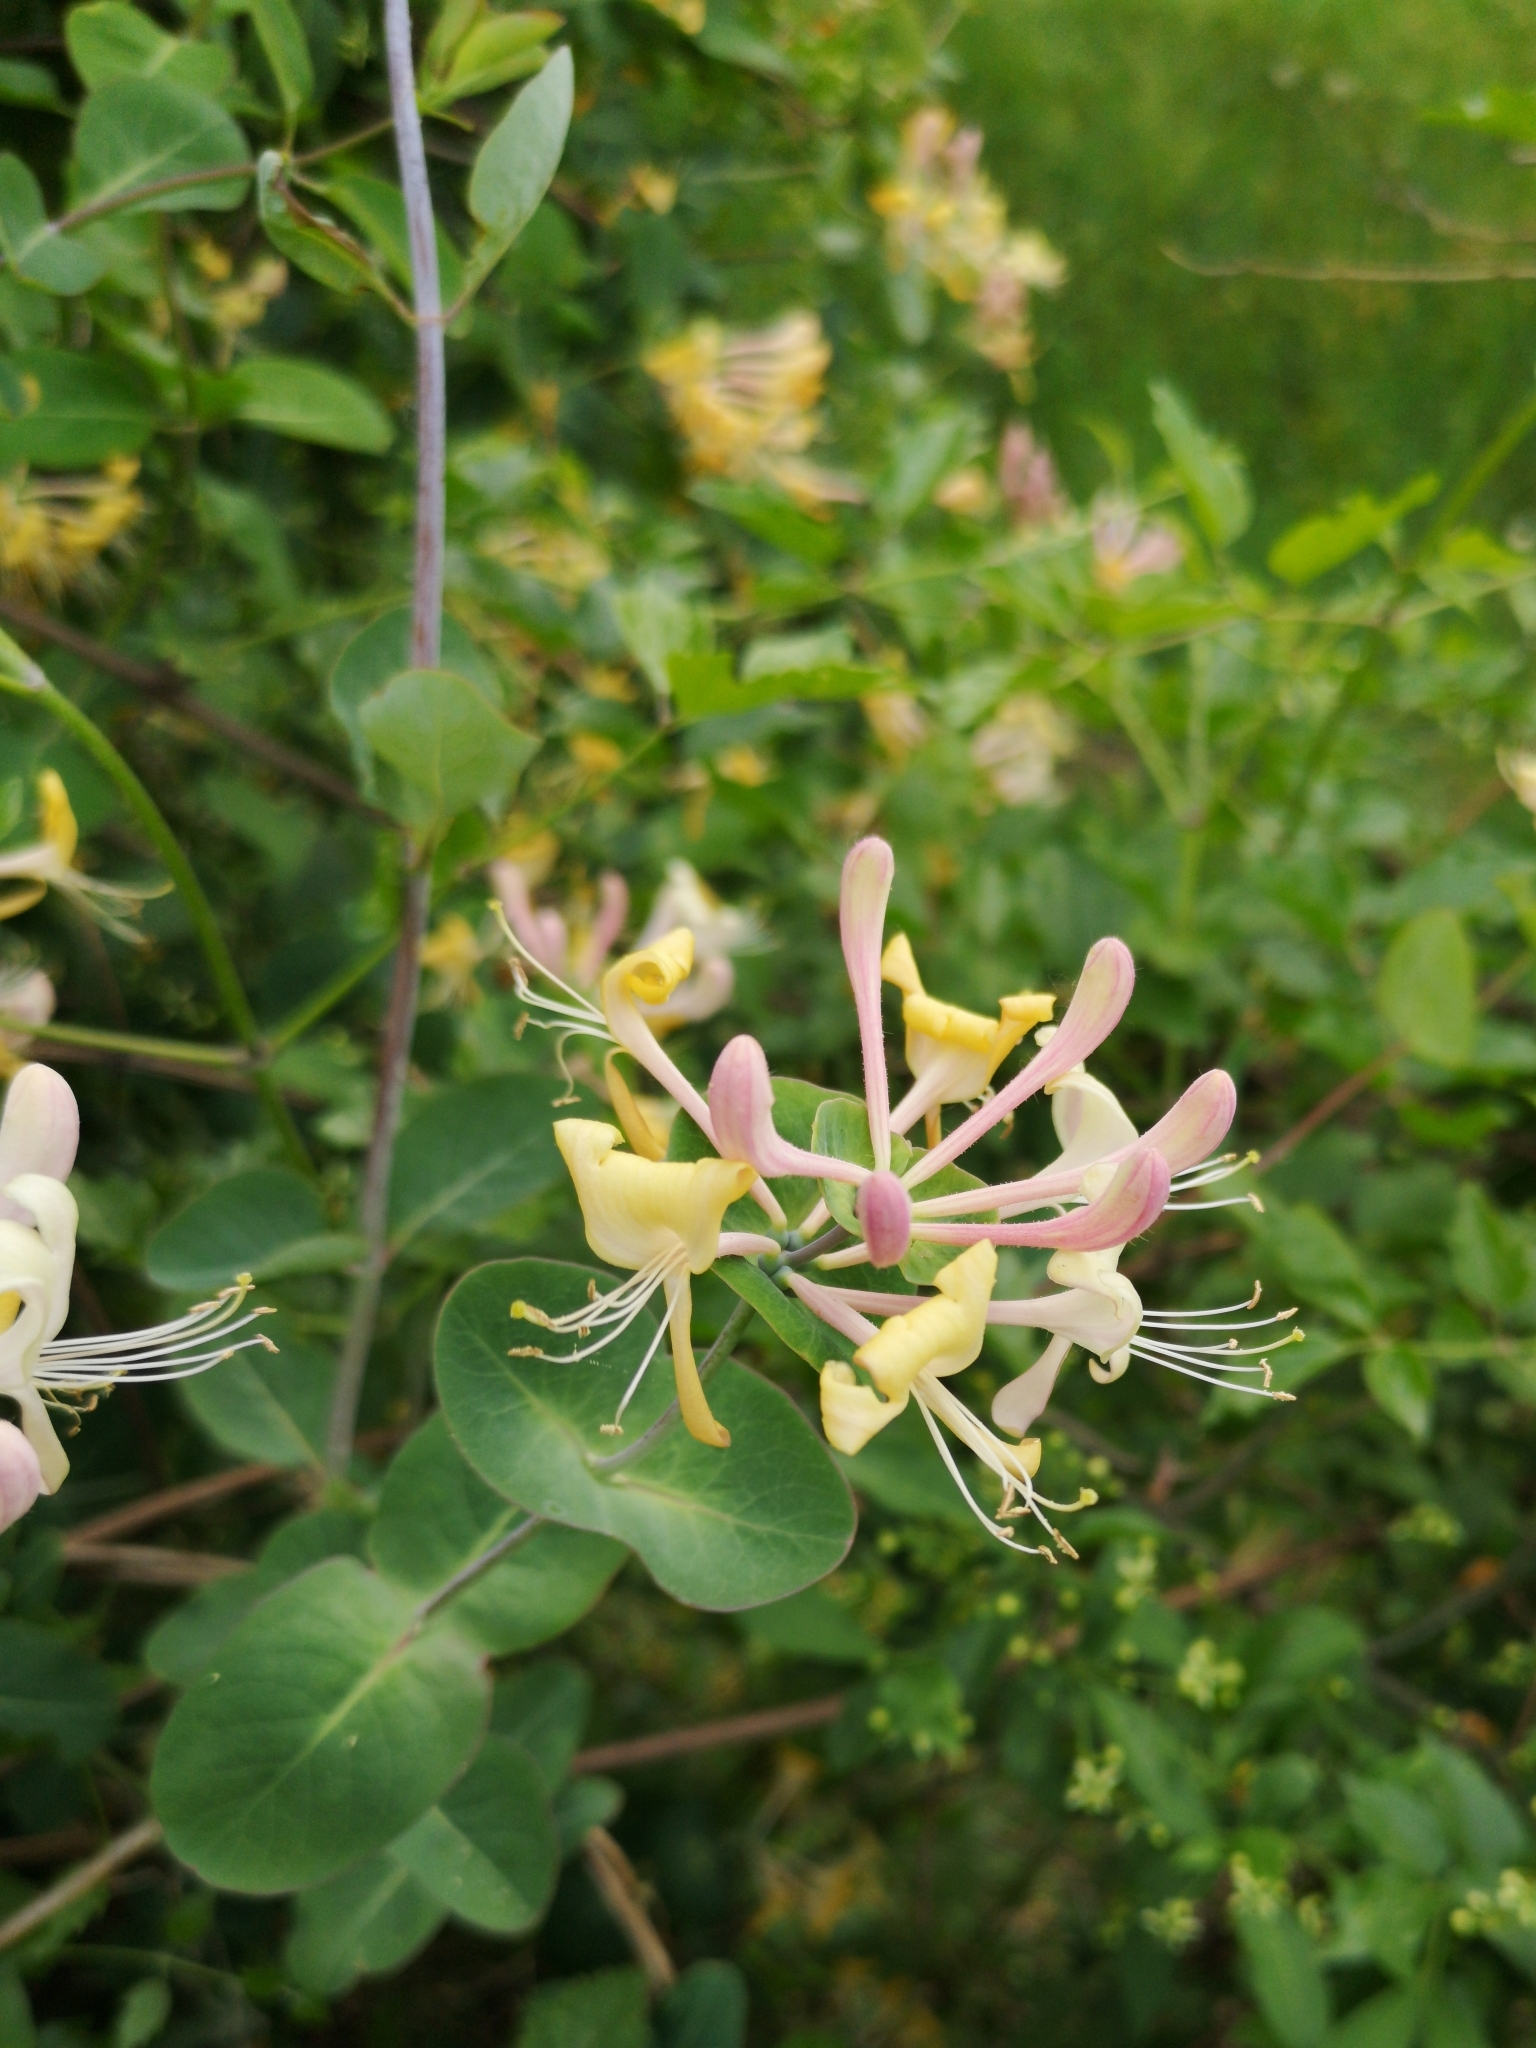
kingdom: Plantae
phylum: Tracheophyta
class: Magnoliopsida
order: Dipsacales
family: Caprifoliaceae
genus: Lonicera
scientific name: Lonicera caprifolium
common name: Perfoliate honeysuckle
